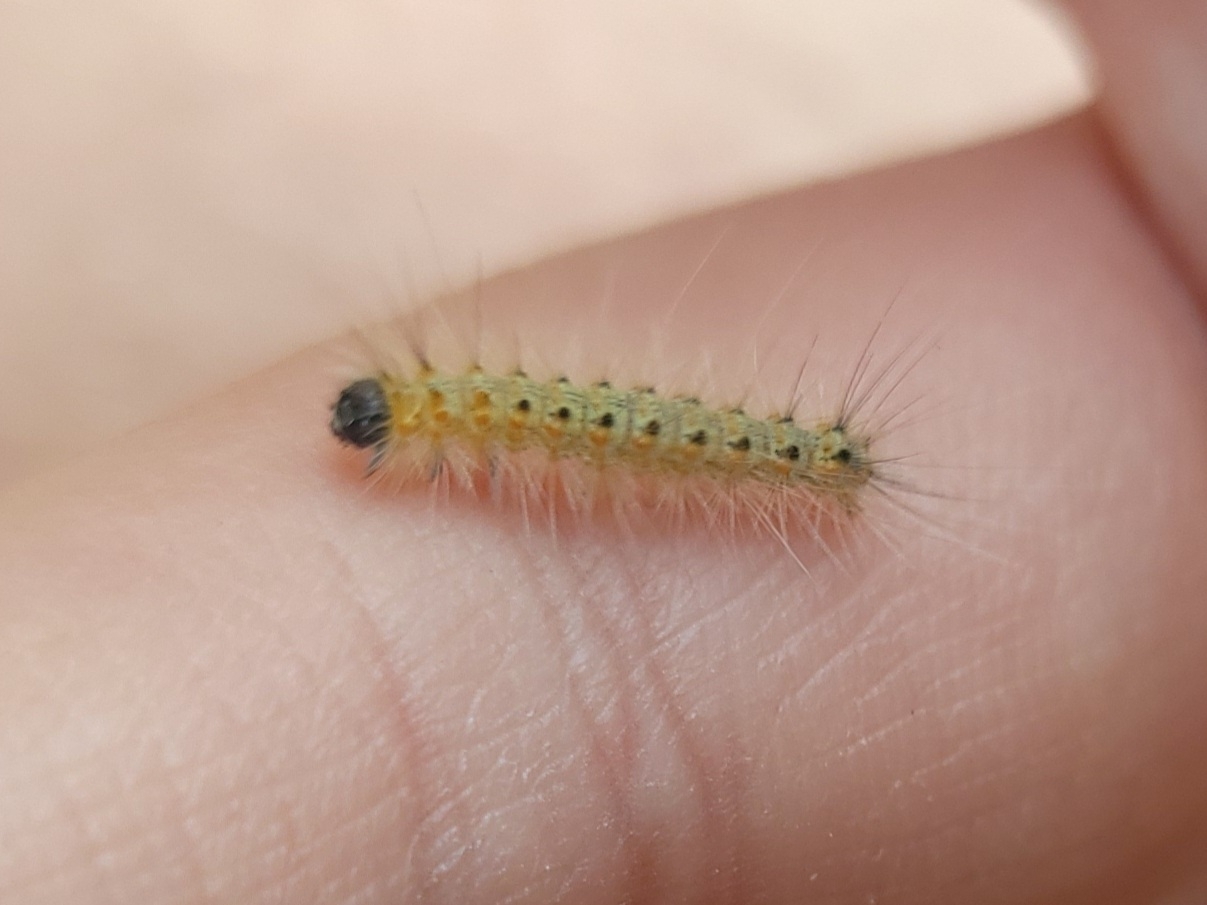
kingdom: Animalia
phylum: Arthropoda
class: Insecta
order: Lepidoptera
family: Erebidae
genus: Hyphantria
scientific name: Hyphantria cunea
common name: American white moth
